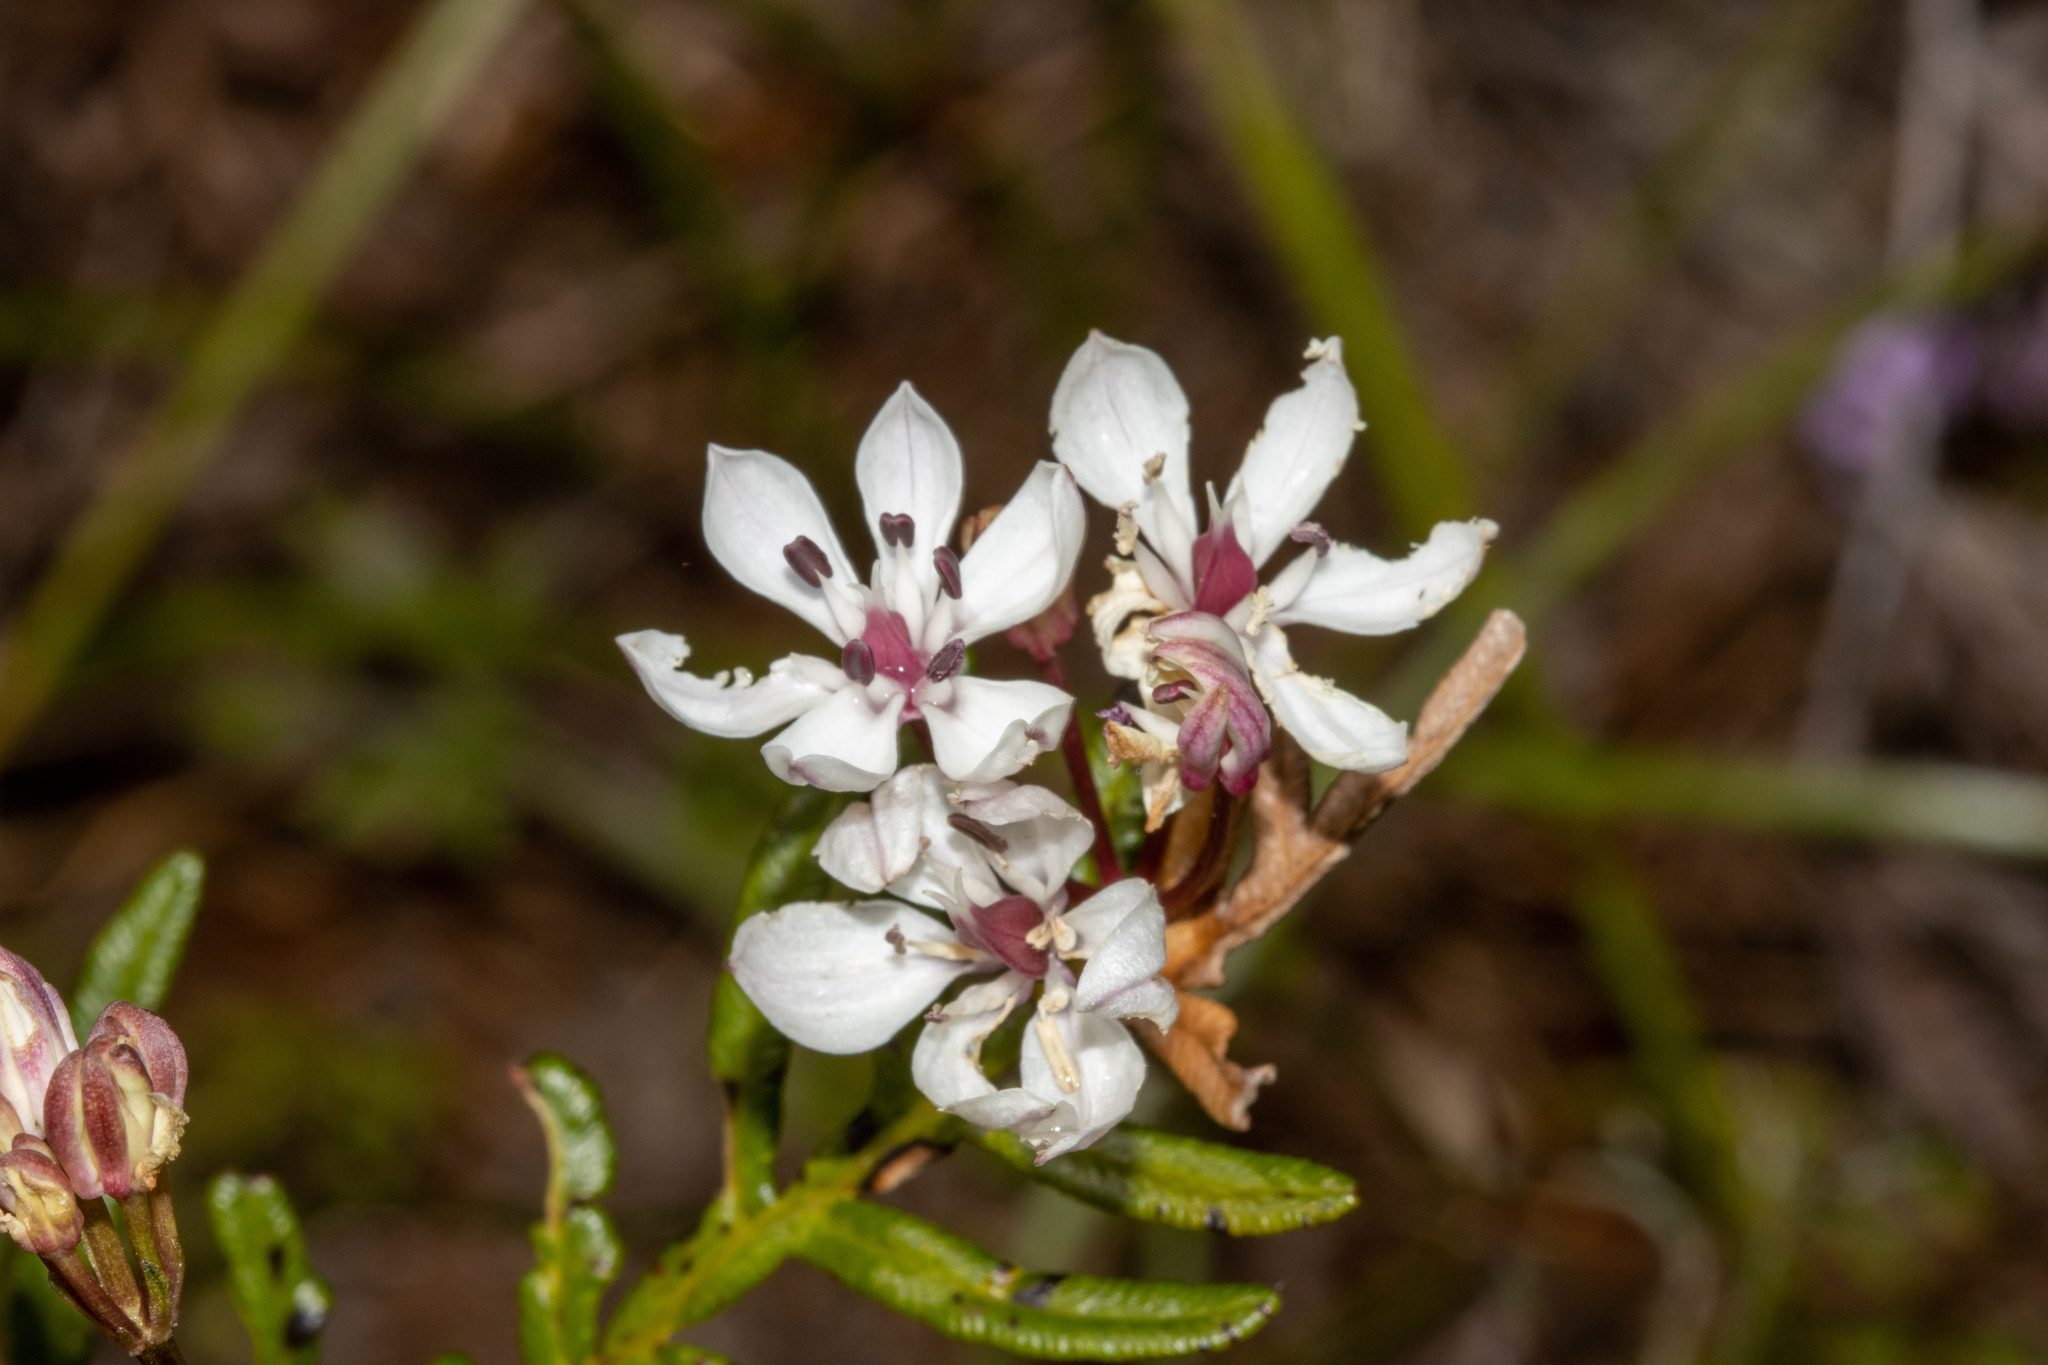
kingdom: Plantae
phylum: Tracheophyta
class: Liliopsida
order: Liliales
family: Colchicaceae
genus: Burchardia
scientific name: Burchardia umbellata
